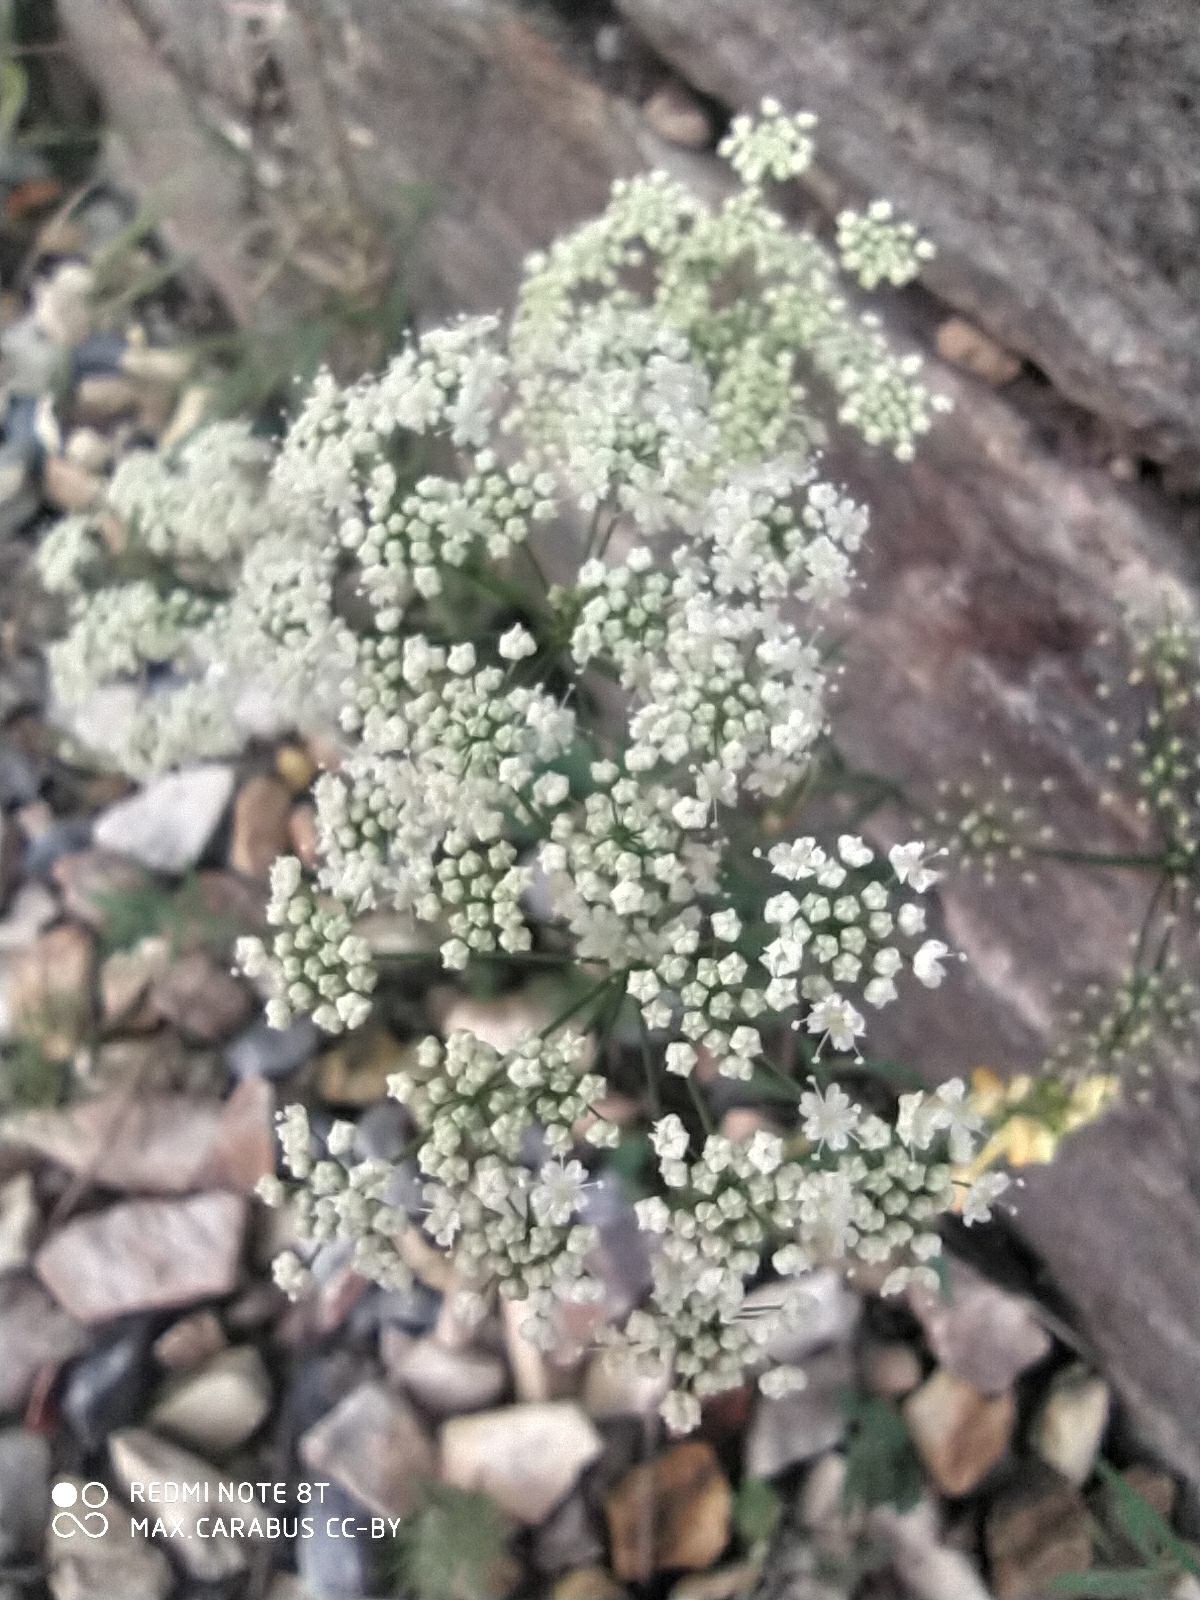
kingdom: Plantae
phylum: Tracheophyta
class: Magnoliopsida
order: Apiales
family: Apiaceae
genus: Pimpinella
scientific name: Pimpinella saxifraga
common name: Burnet-saxifrage
